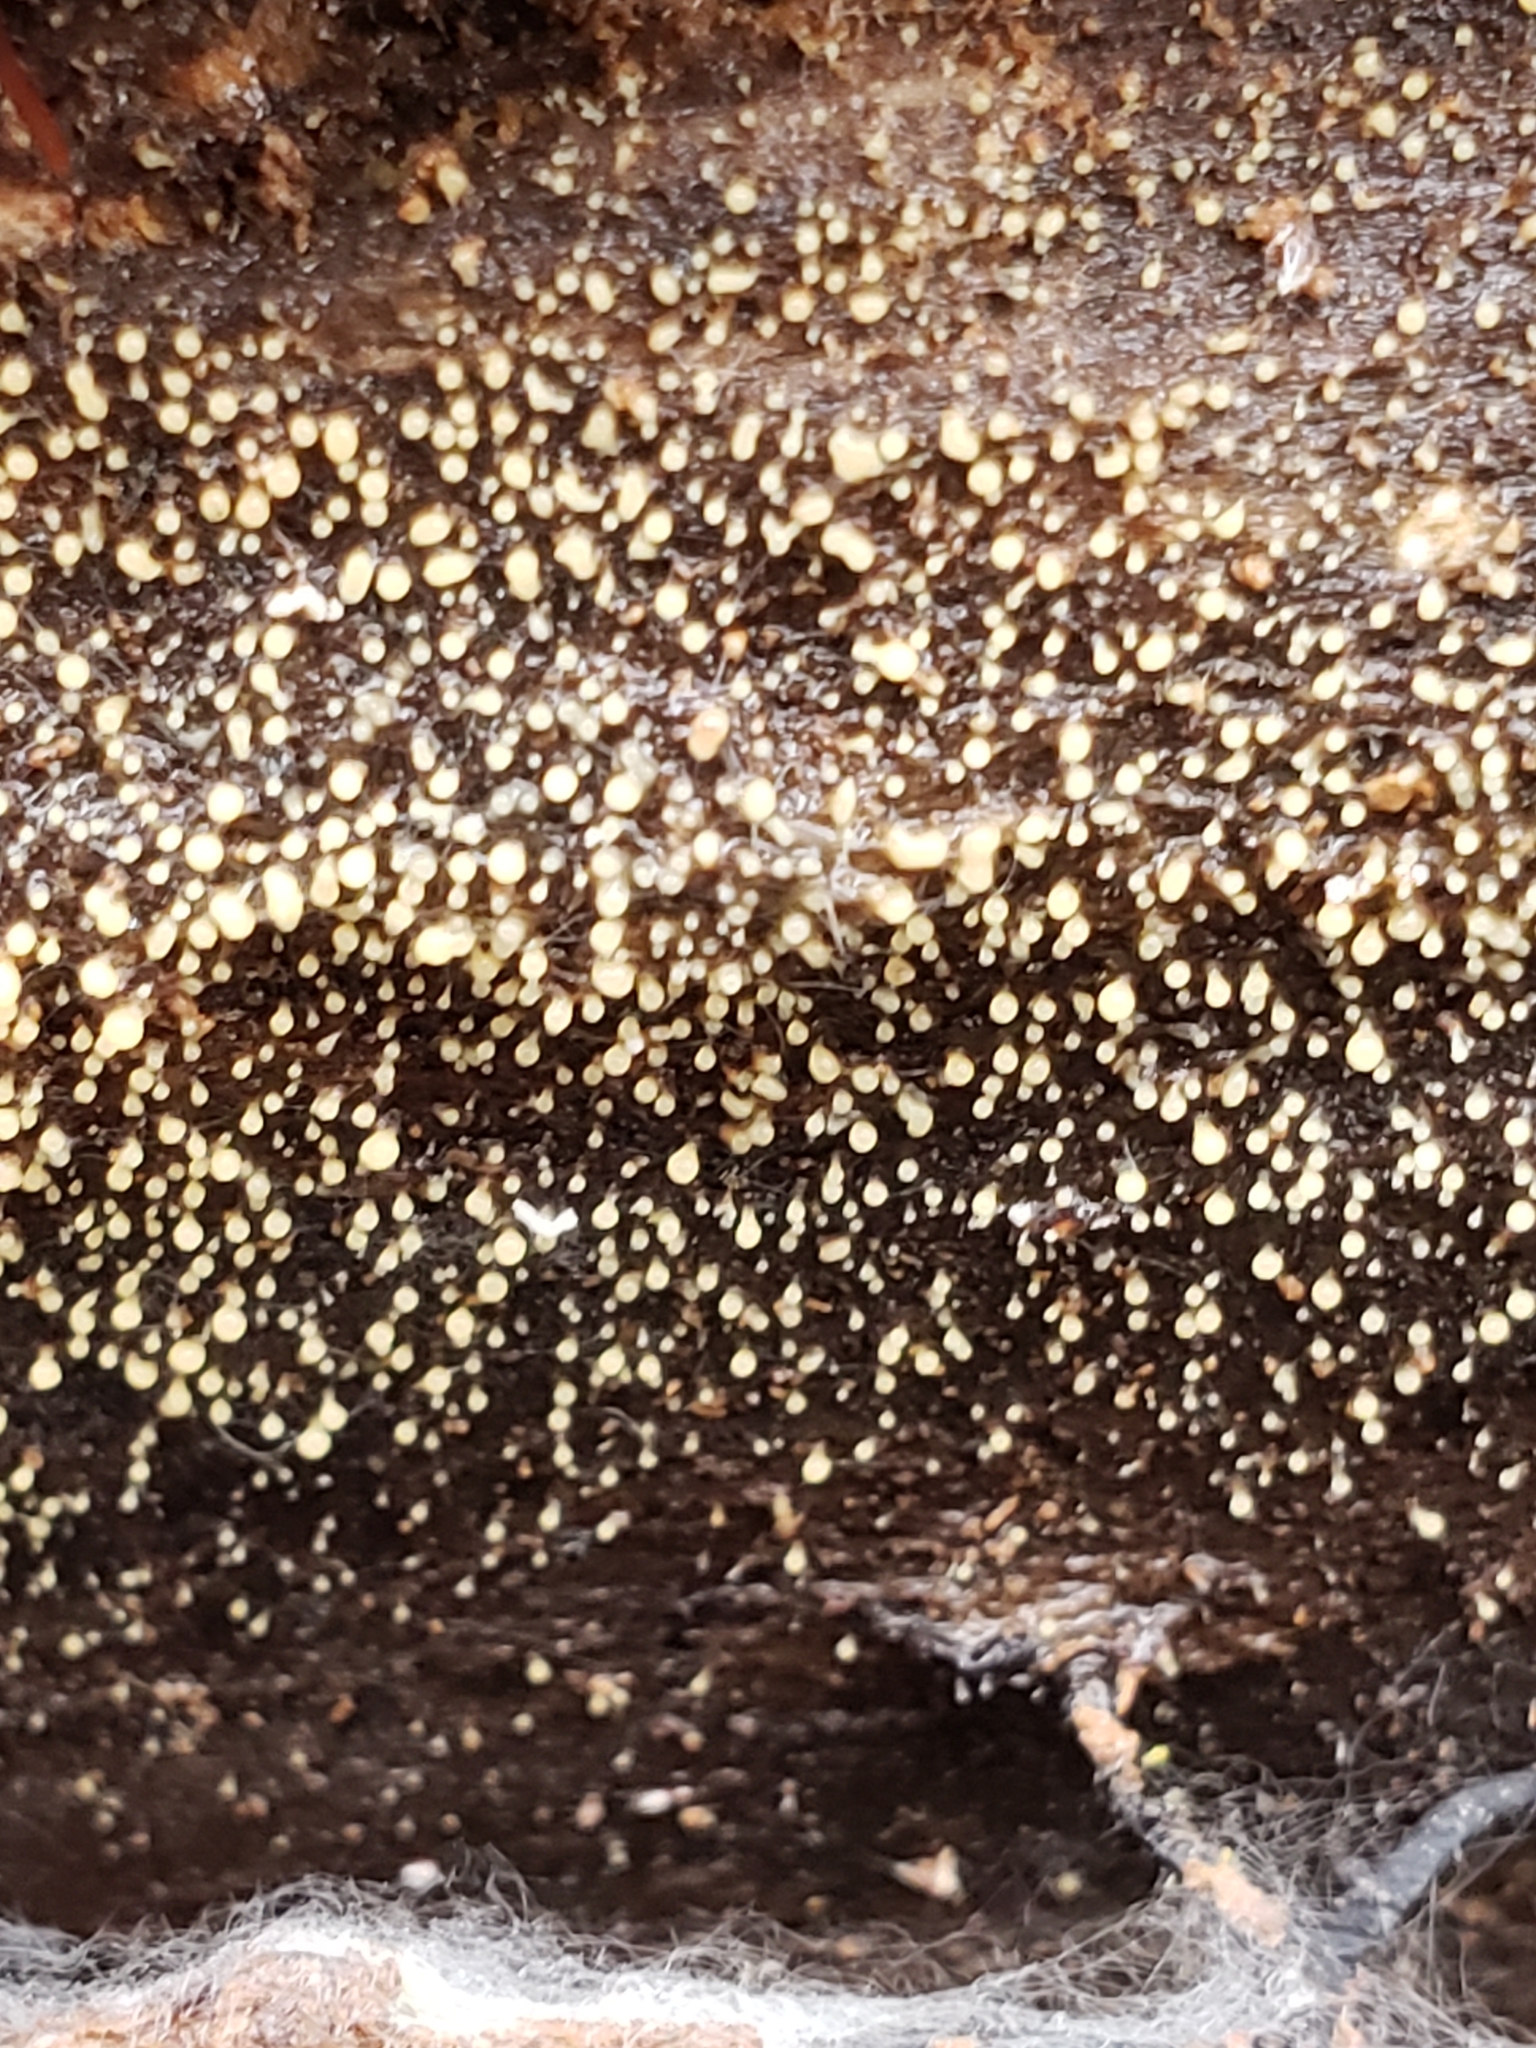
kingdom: Fungi
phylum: Basidiomycota
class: Atractiellomycetes
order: Atractiellales
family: Phleogenaceae
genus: Helicogloea
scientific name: Helicogloea compressa
